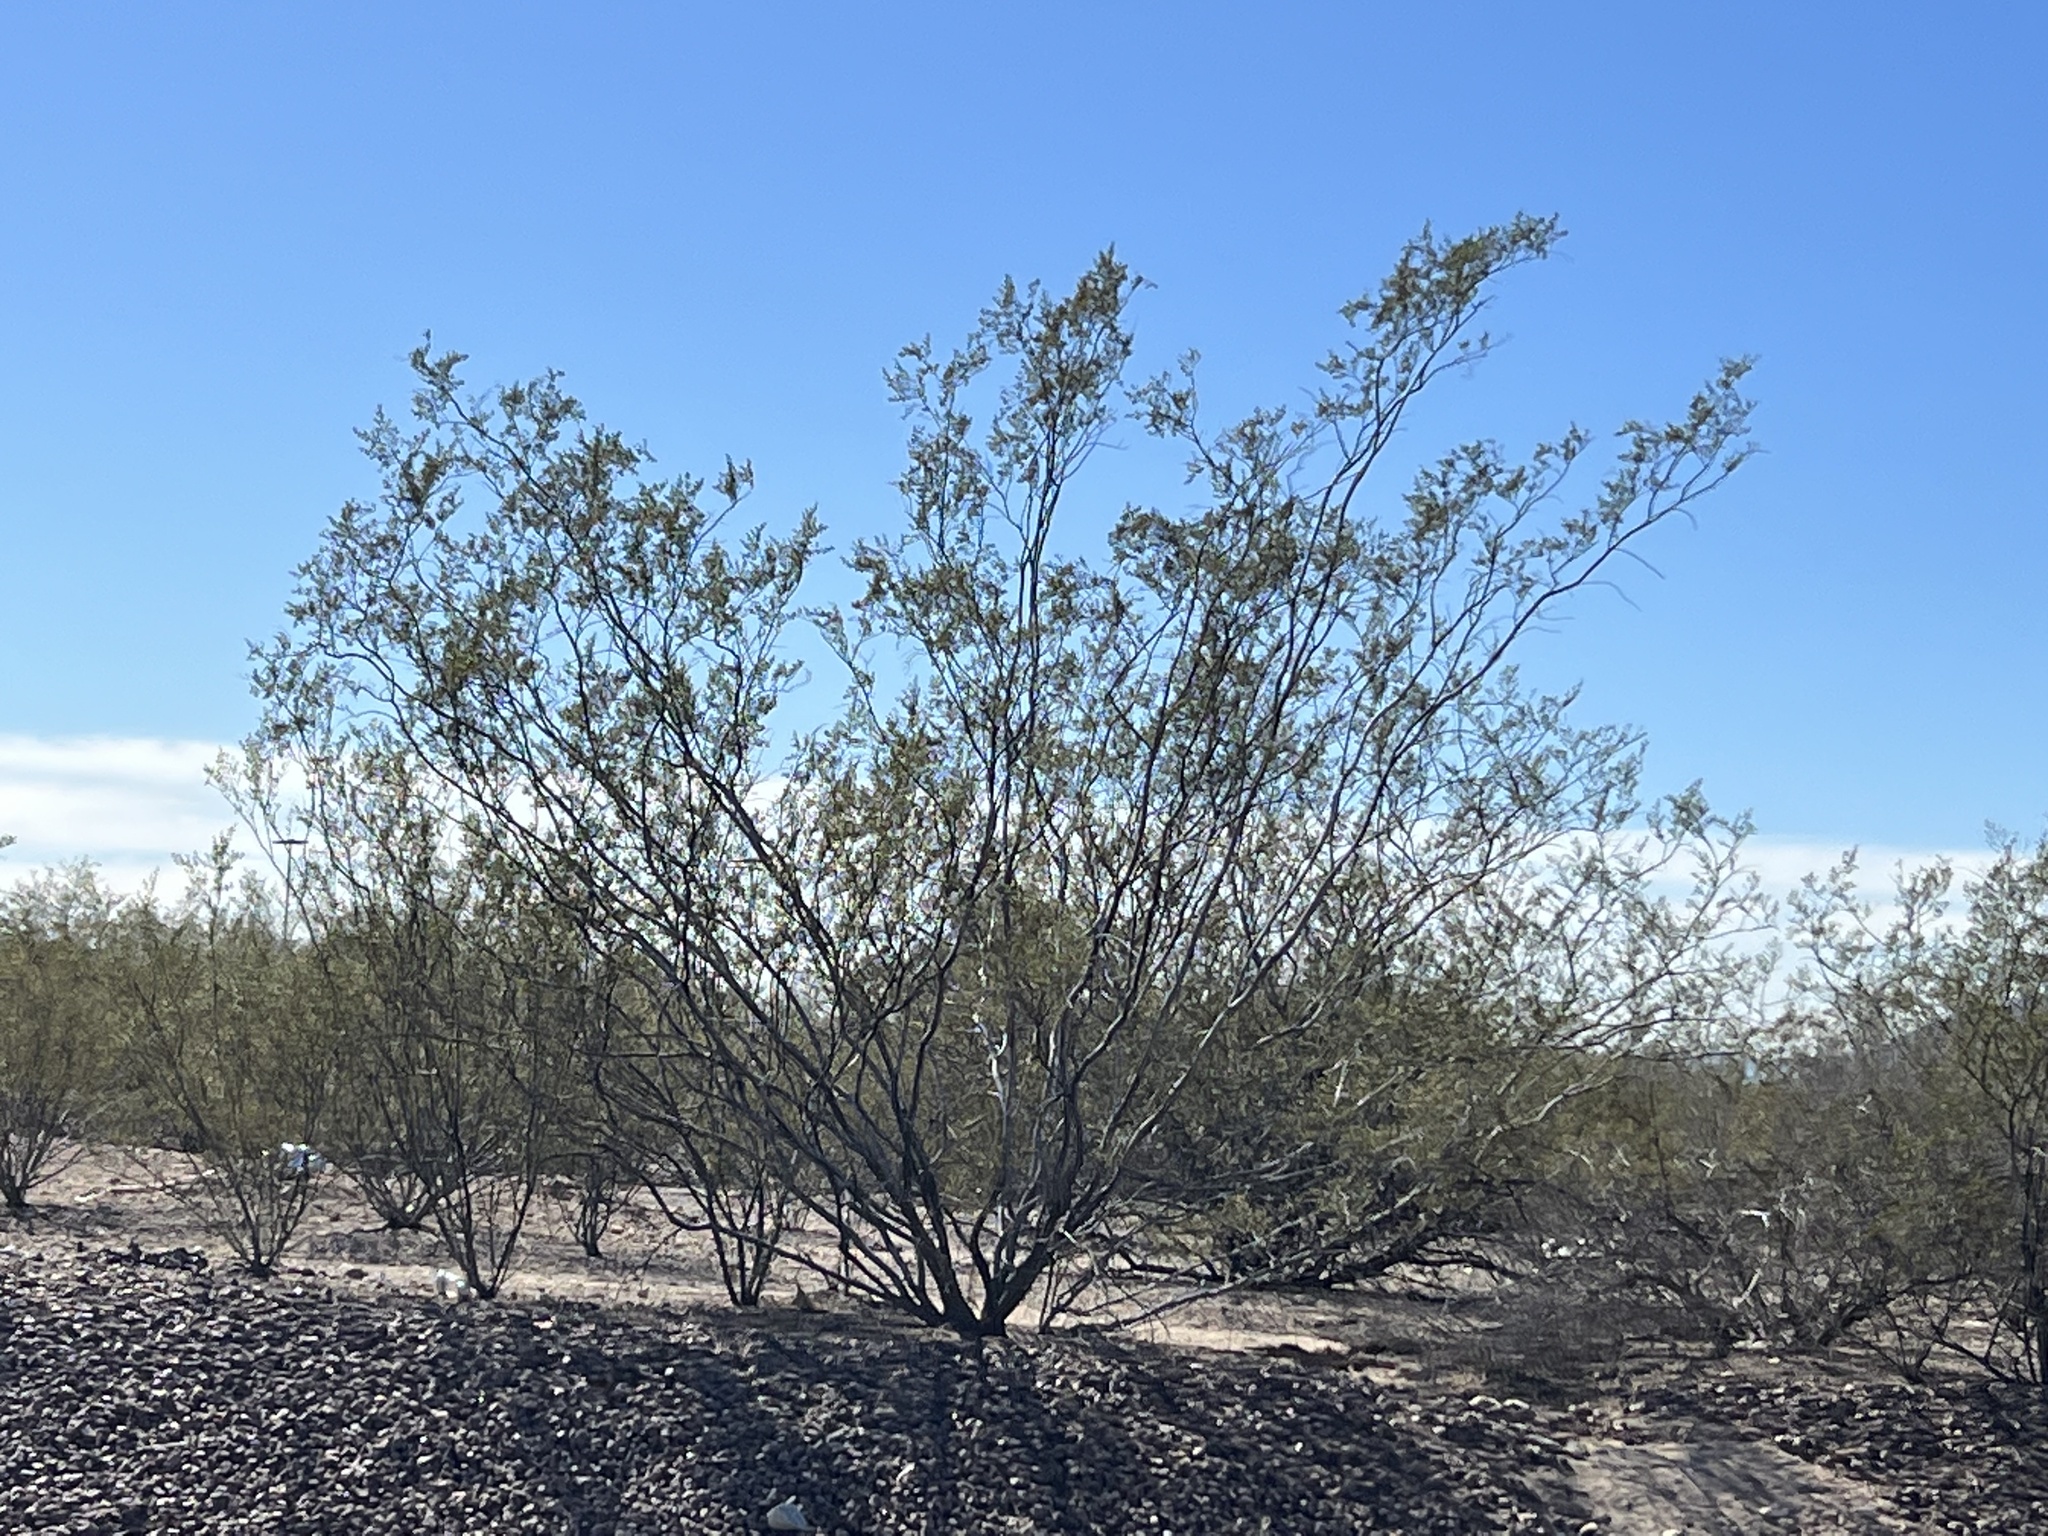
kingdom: Plantae
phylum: Tracheophyta
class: Magnoliopsida
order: Zygophyllales
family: Zygophyllaceae
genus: Larrea
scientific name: Larrea tridentata
